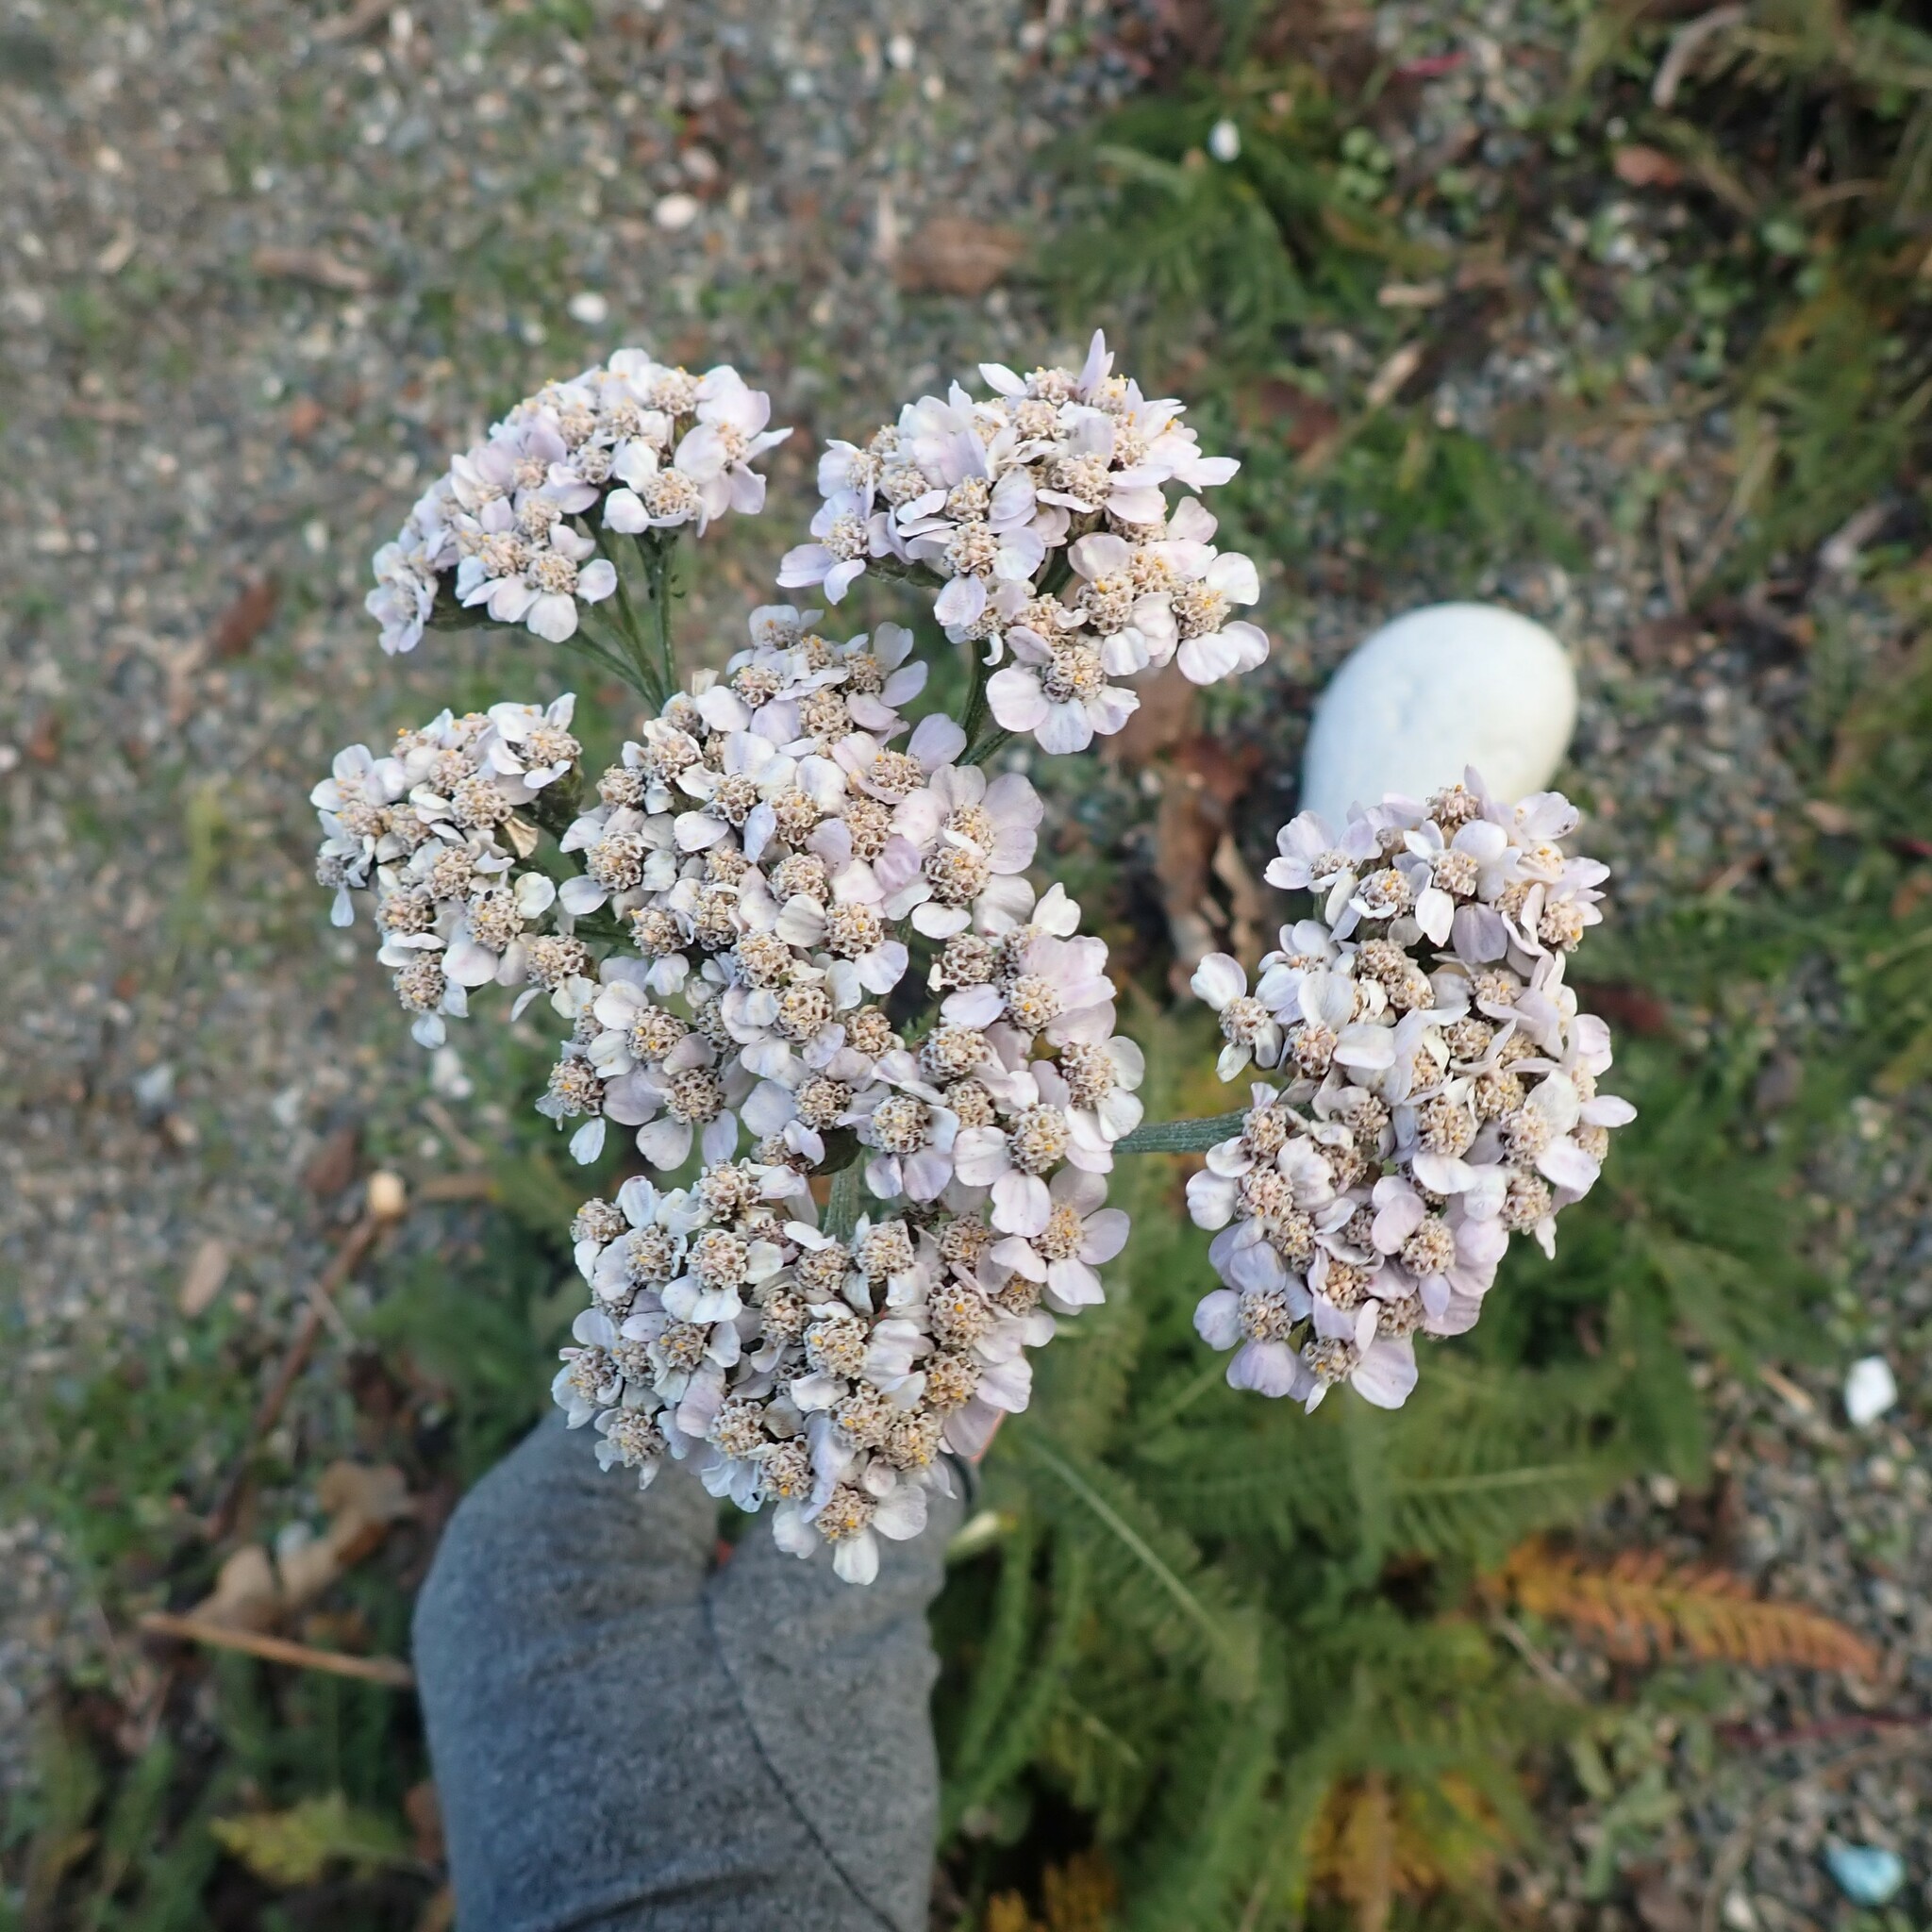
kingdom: Plantae
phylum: Tracheophyta
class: Magnoliopsida
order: Asterales
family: Asteraceae
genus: Achillea
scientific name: Achillea millefolium
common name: Yarrow
